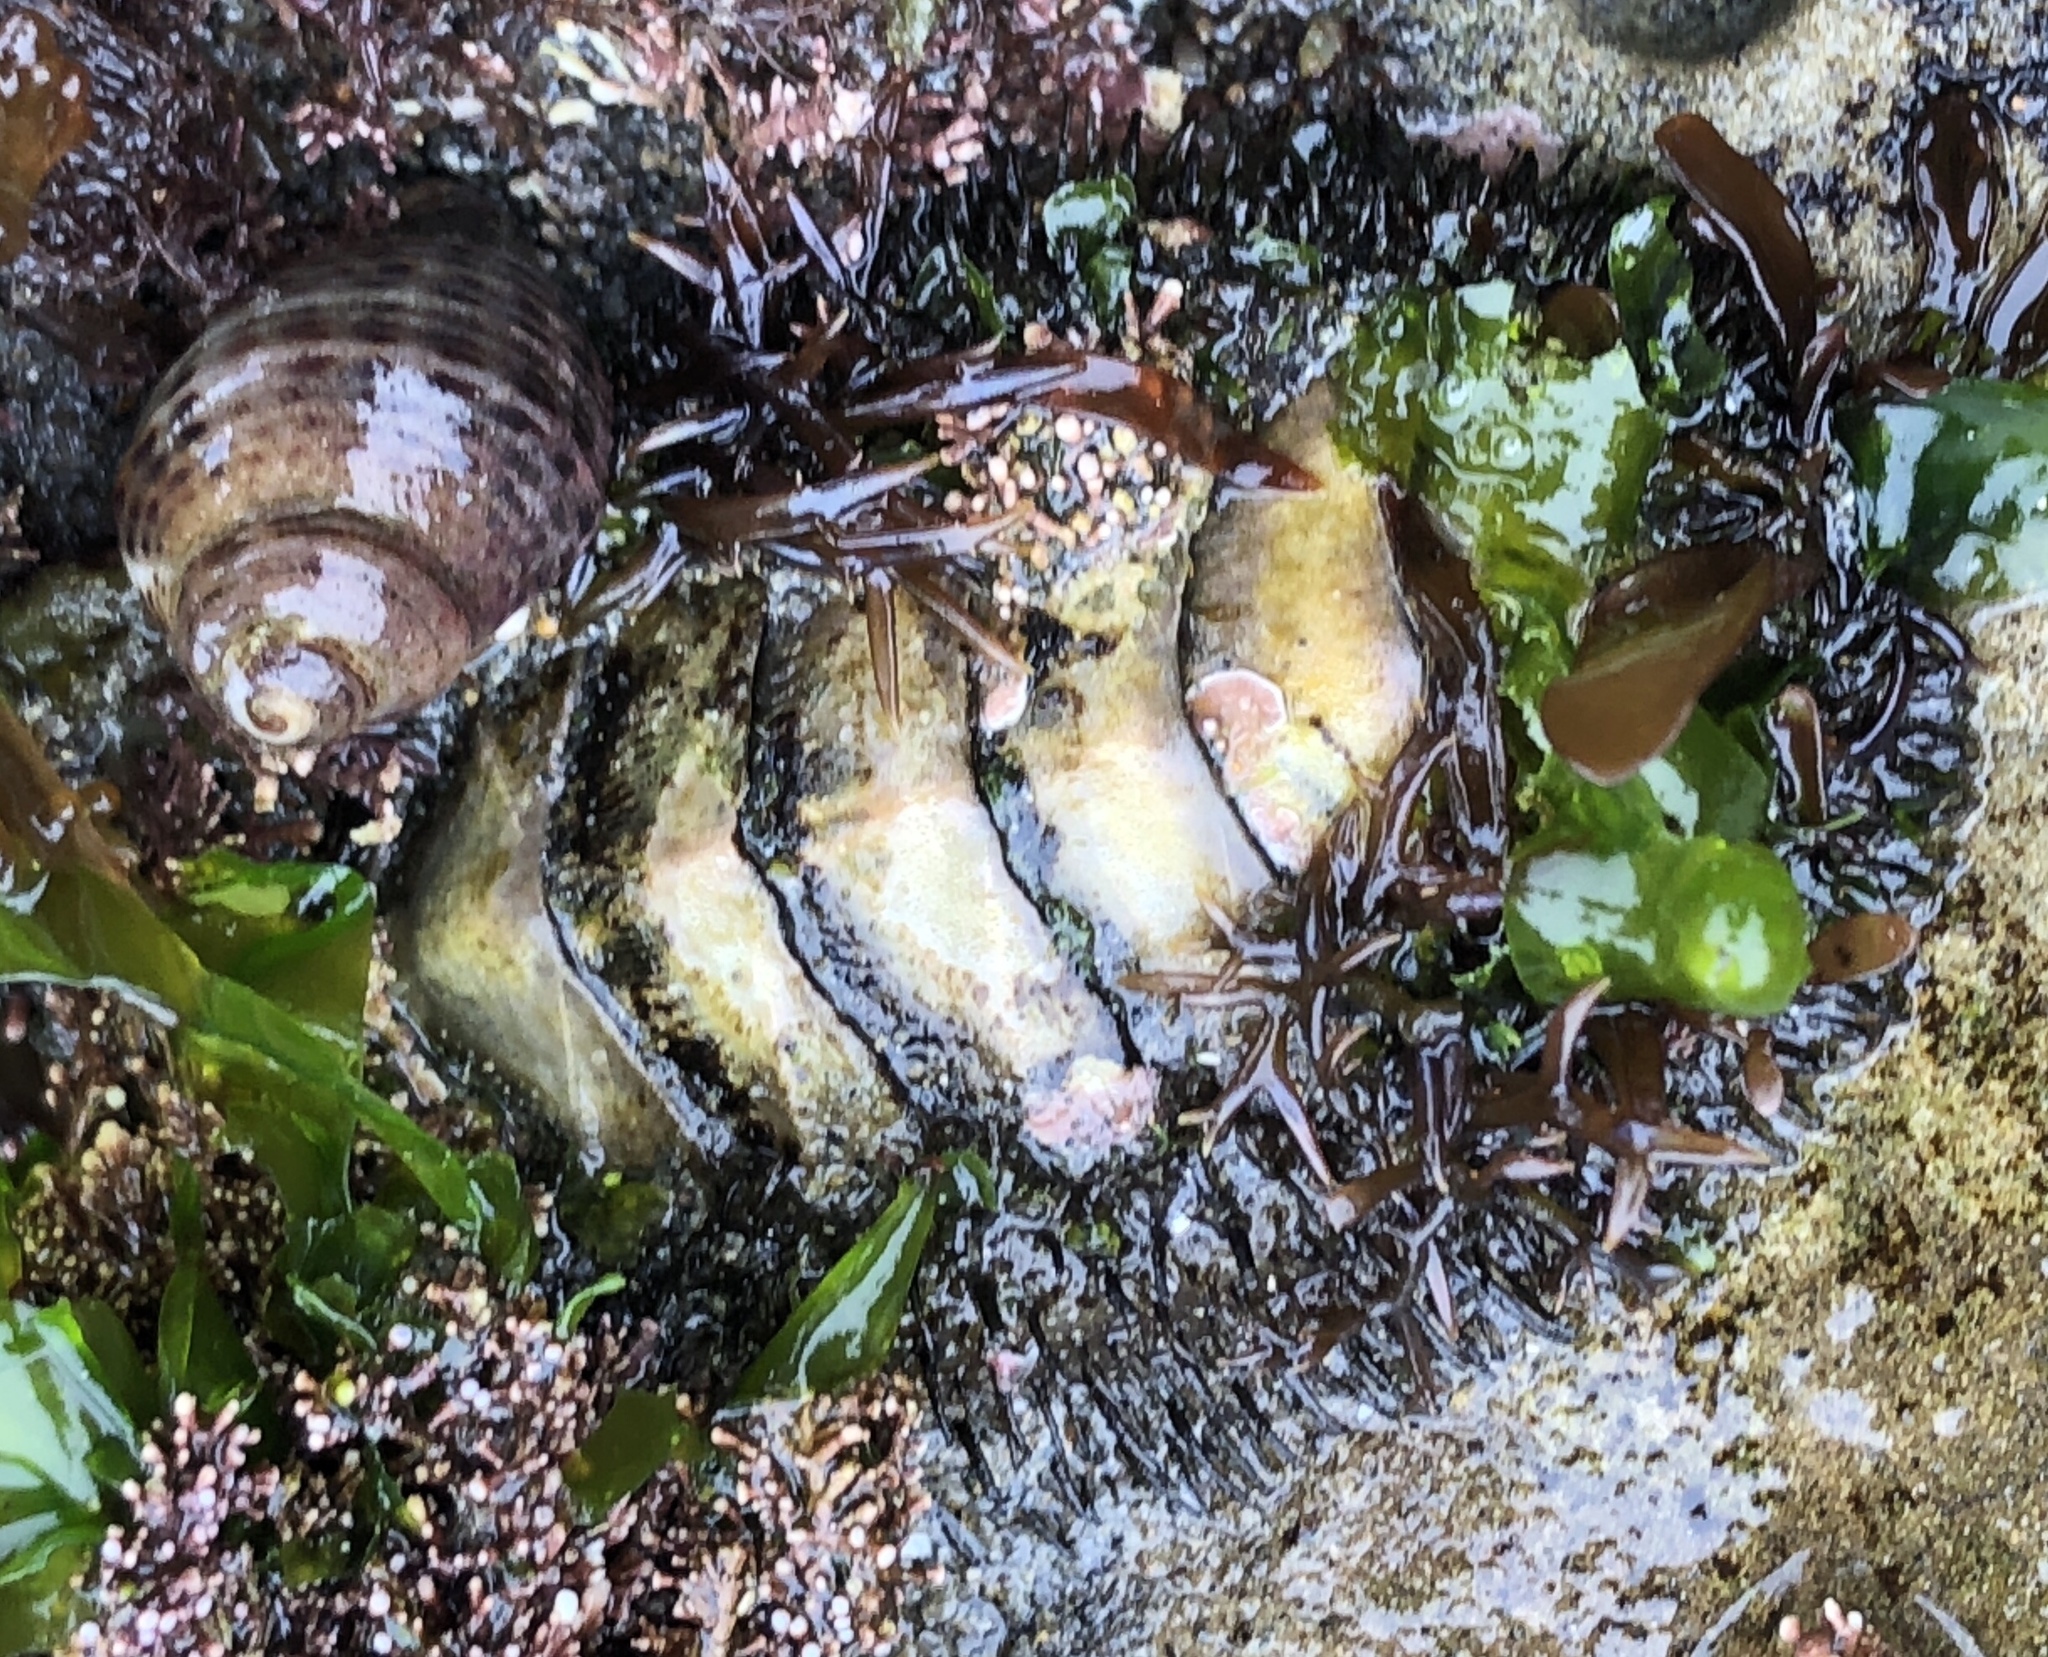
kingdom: Animalia
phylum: Mollusca
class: Polyplacophora
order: Chitonida
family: Mopaliidae
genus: Mopalia
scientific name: Mopalia muscosa
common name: Mossy chiton
